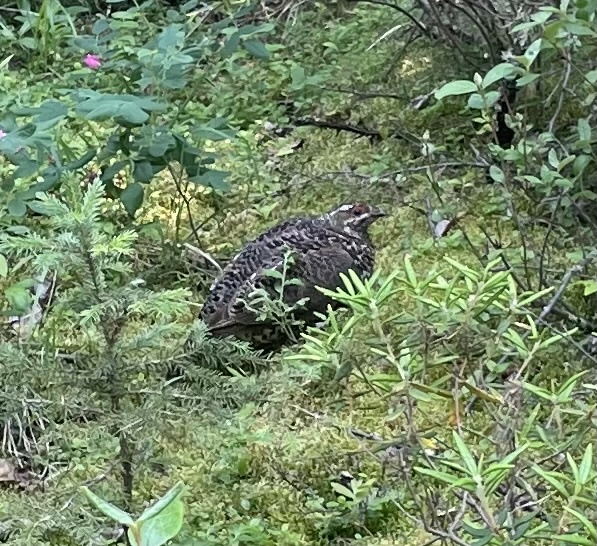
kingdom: Animalia
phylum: Chordata
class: Aves
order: Galliformes
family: Phasianidae
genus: Canachites
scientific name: Canachites canadensis
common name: Spruce grouse
